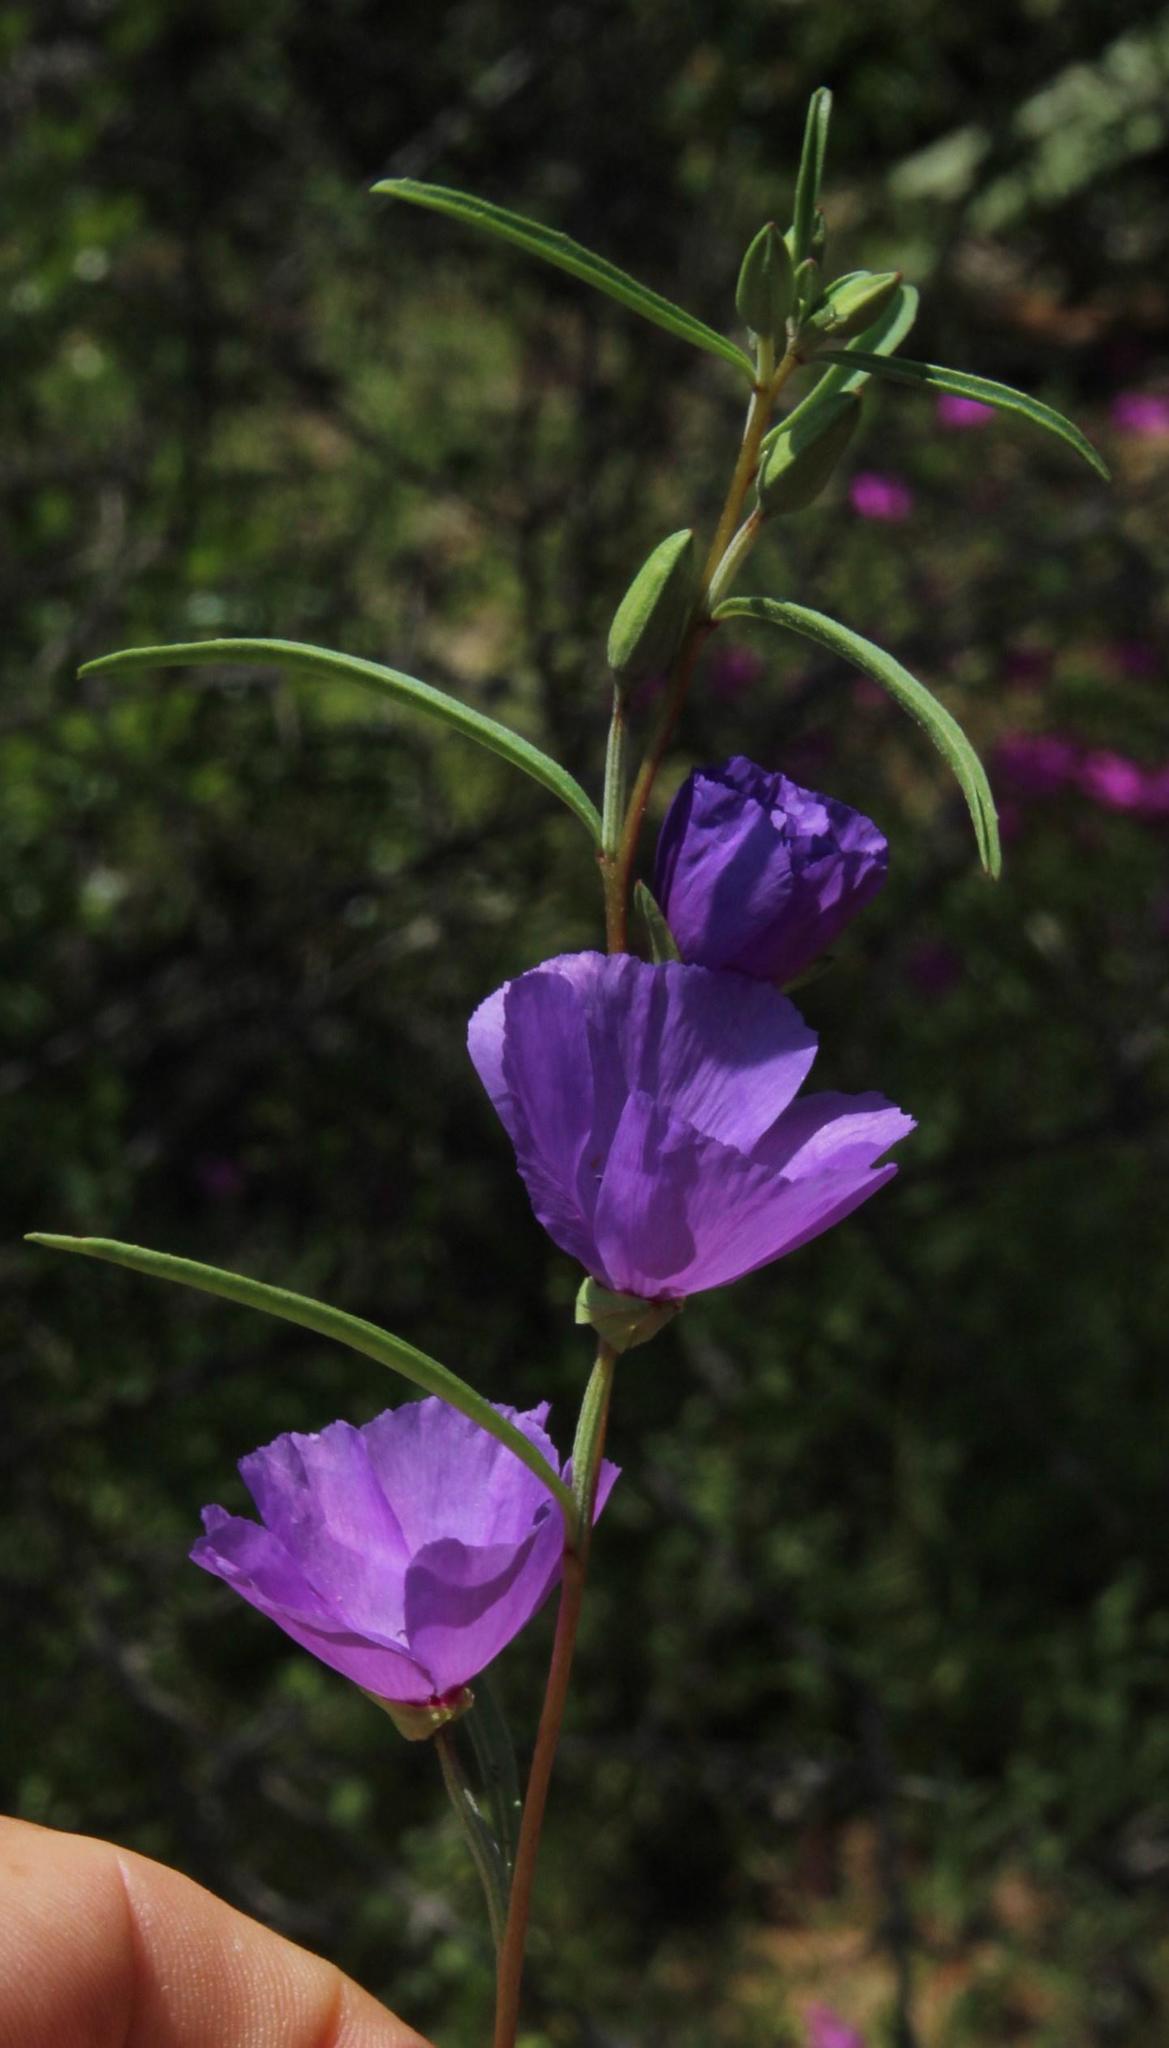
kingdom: Plantae
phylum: Tracheophyta
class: Magnoliopsida
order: Myrtales
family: Onagraceae
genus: Clarkia
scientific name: Clarkia tenella
